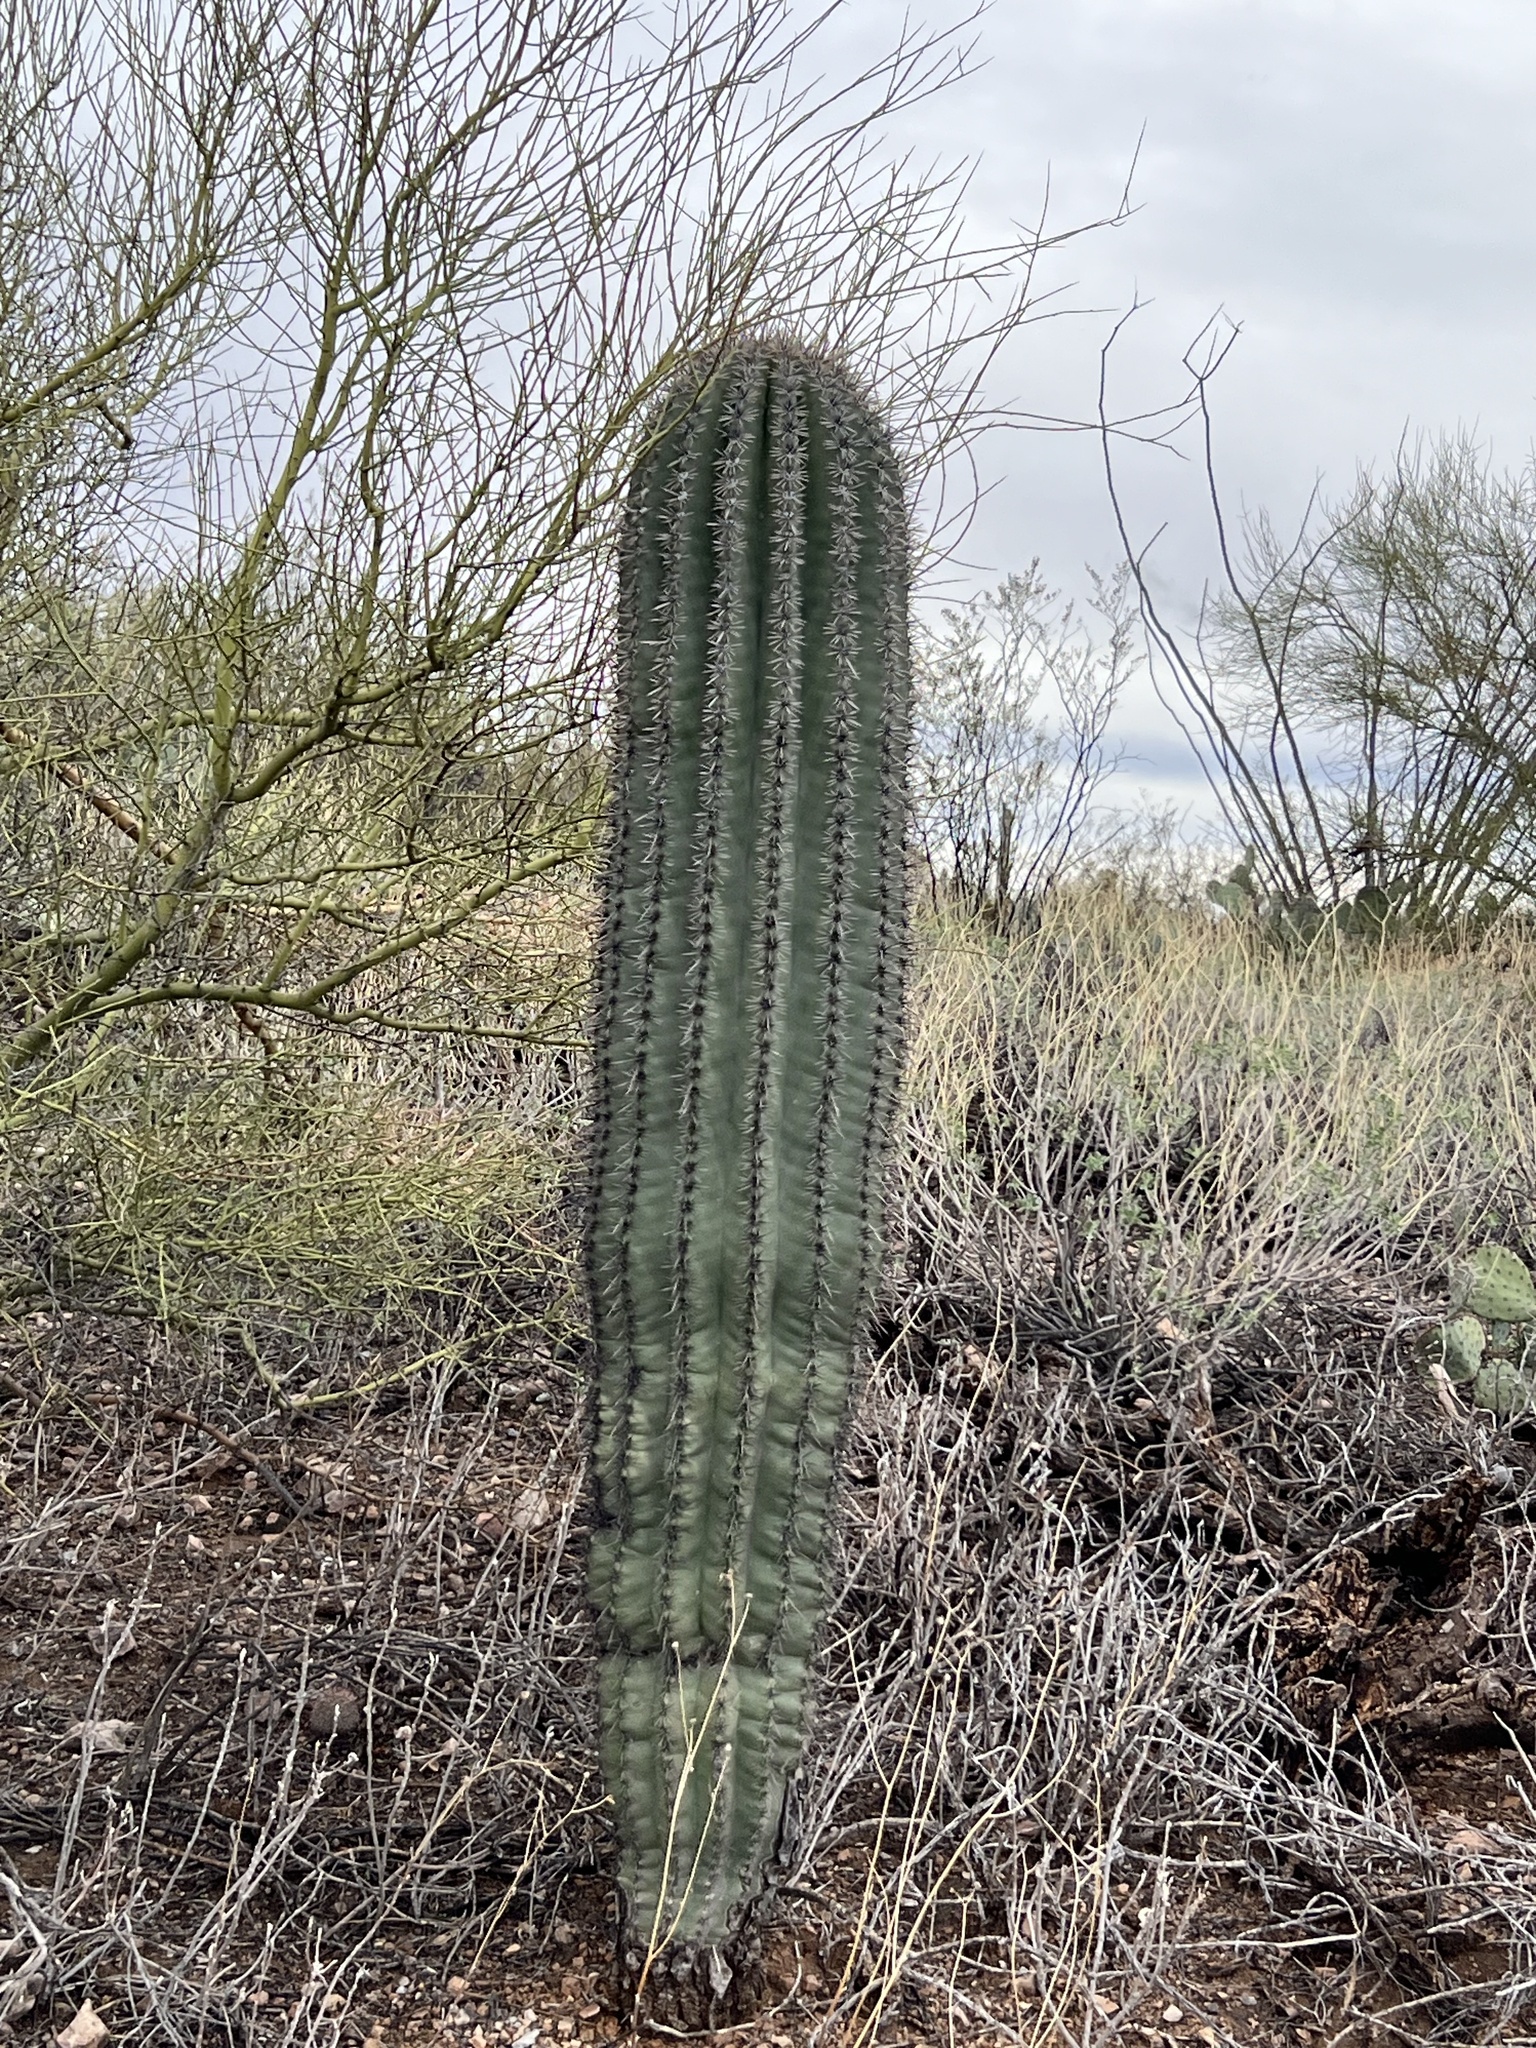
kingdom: Plantae
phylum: Tracheophyta
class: Magnoliopsida
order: Caryophyllales
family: Cactaceae
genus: Carnegiea
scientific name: Carnegiea gigantea
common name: Saguaro
